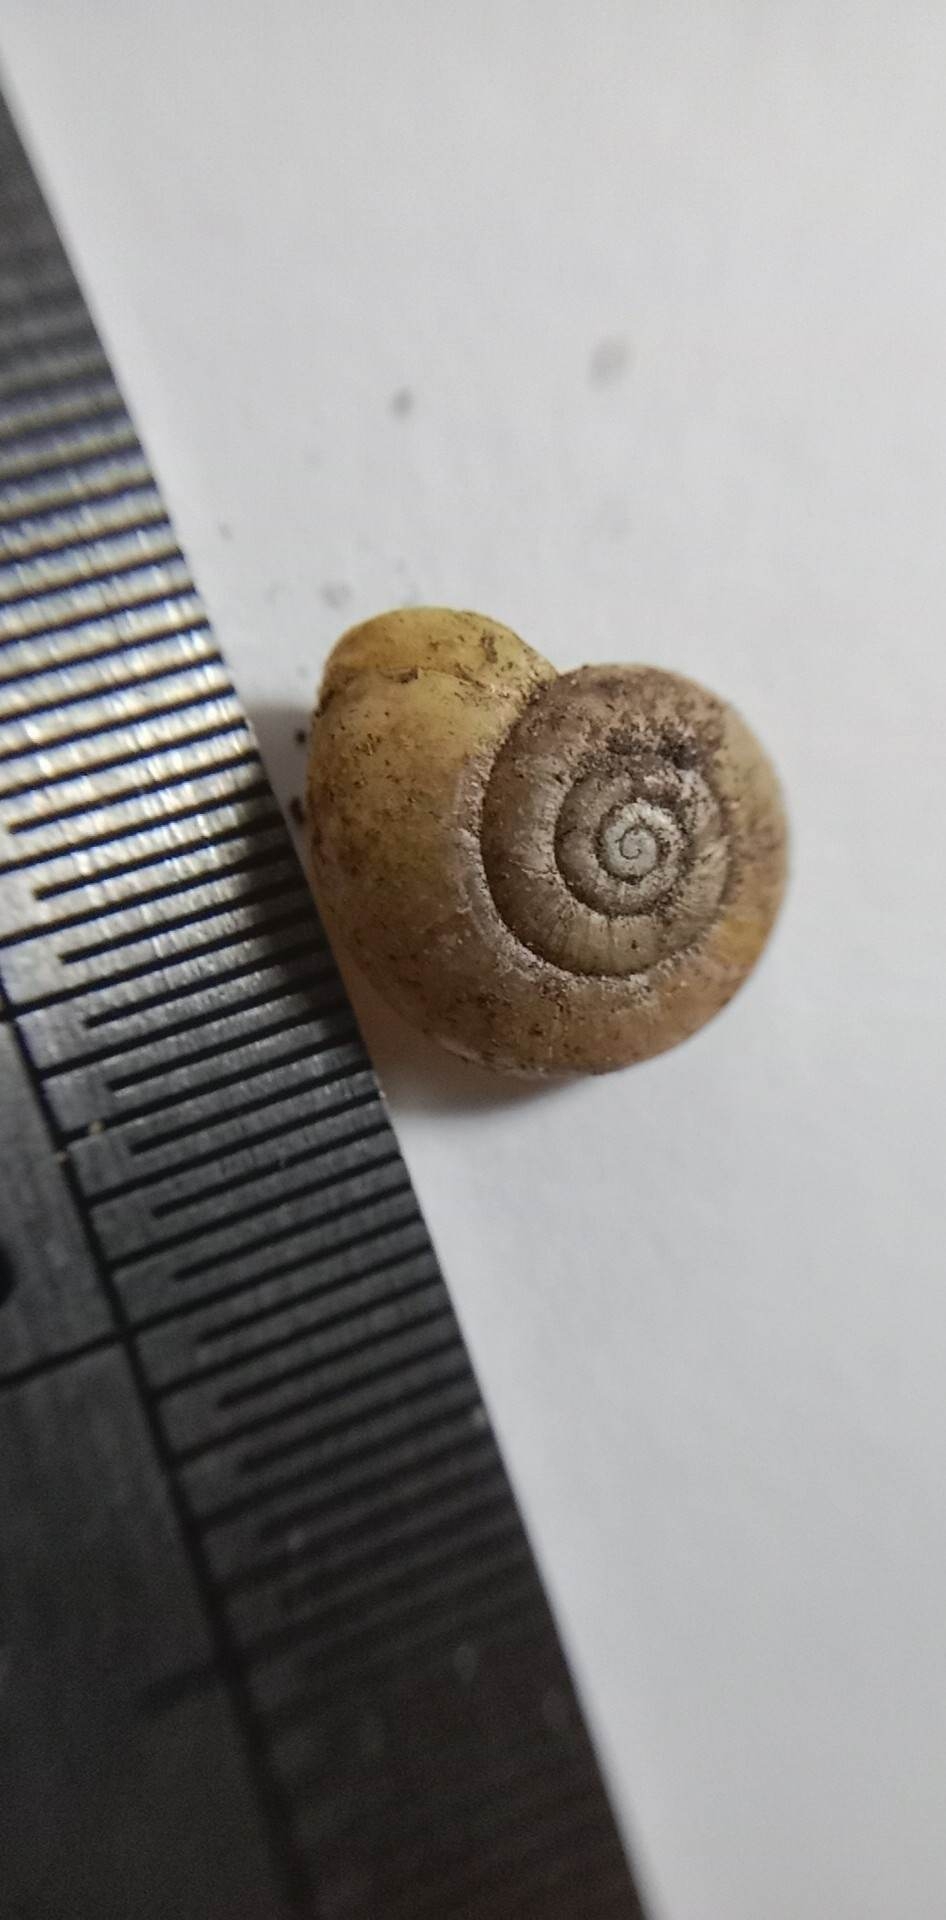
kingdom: Animalia
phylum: Mollusca
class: Gastropoda
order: Stylommatophora
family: Gastrodontidae
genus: Aegopinella
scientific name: Aegopinella minor
